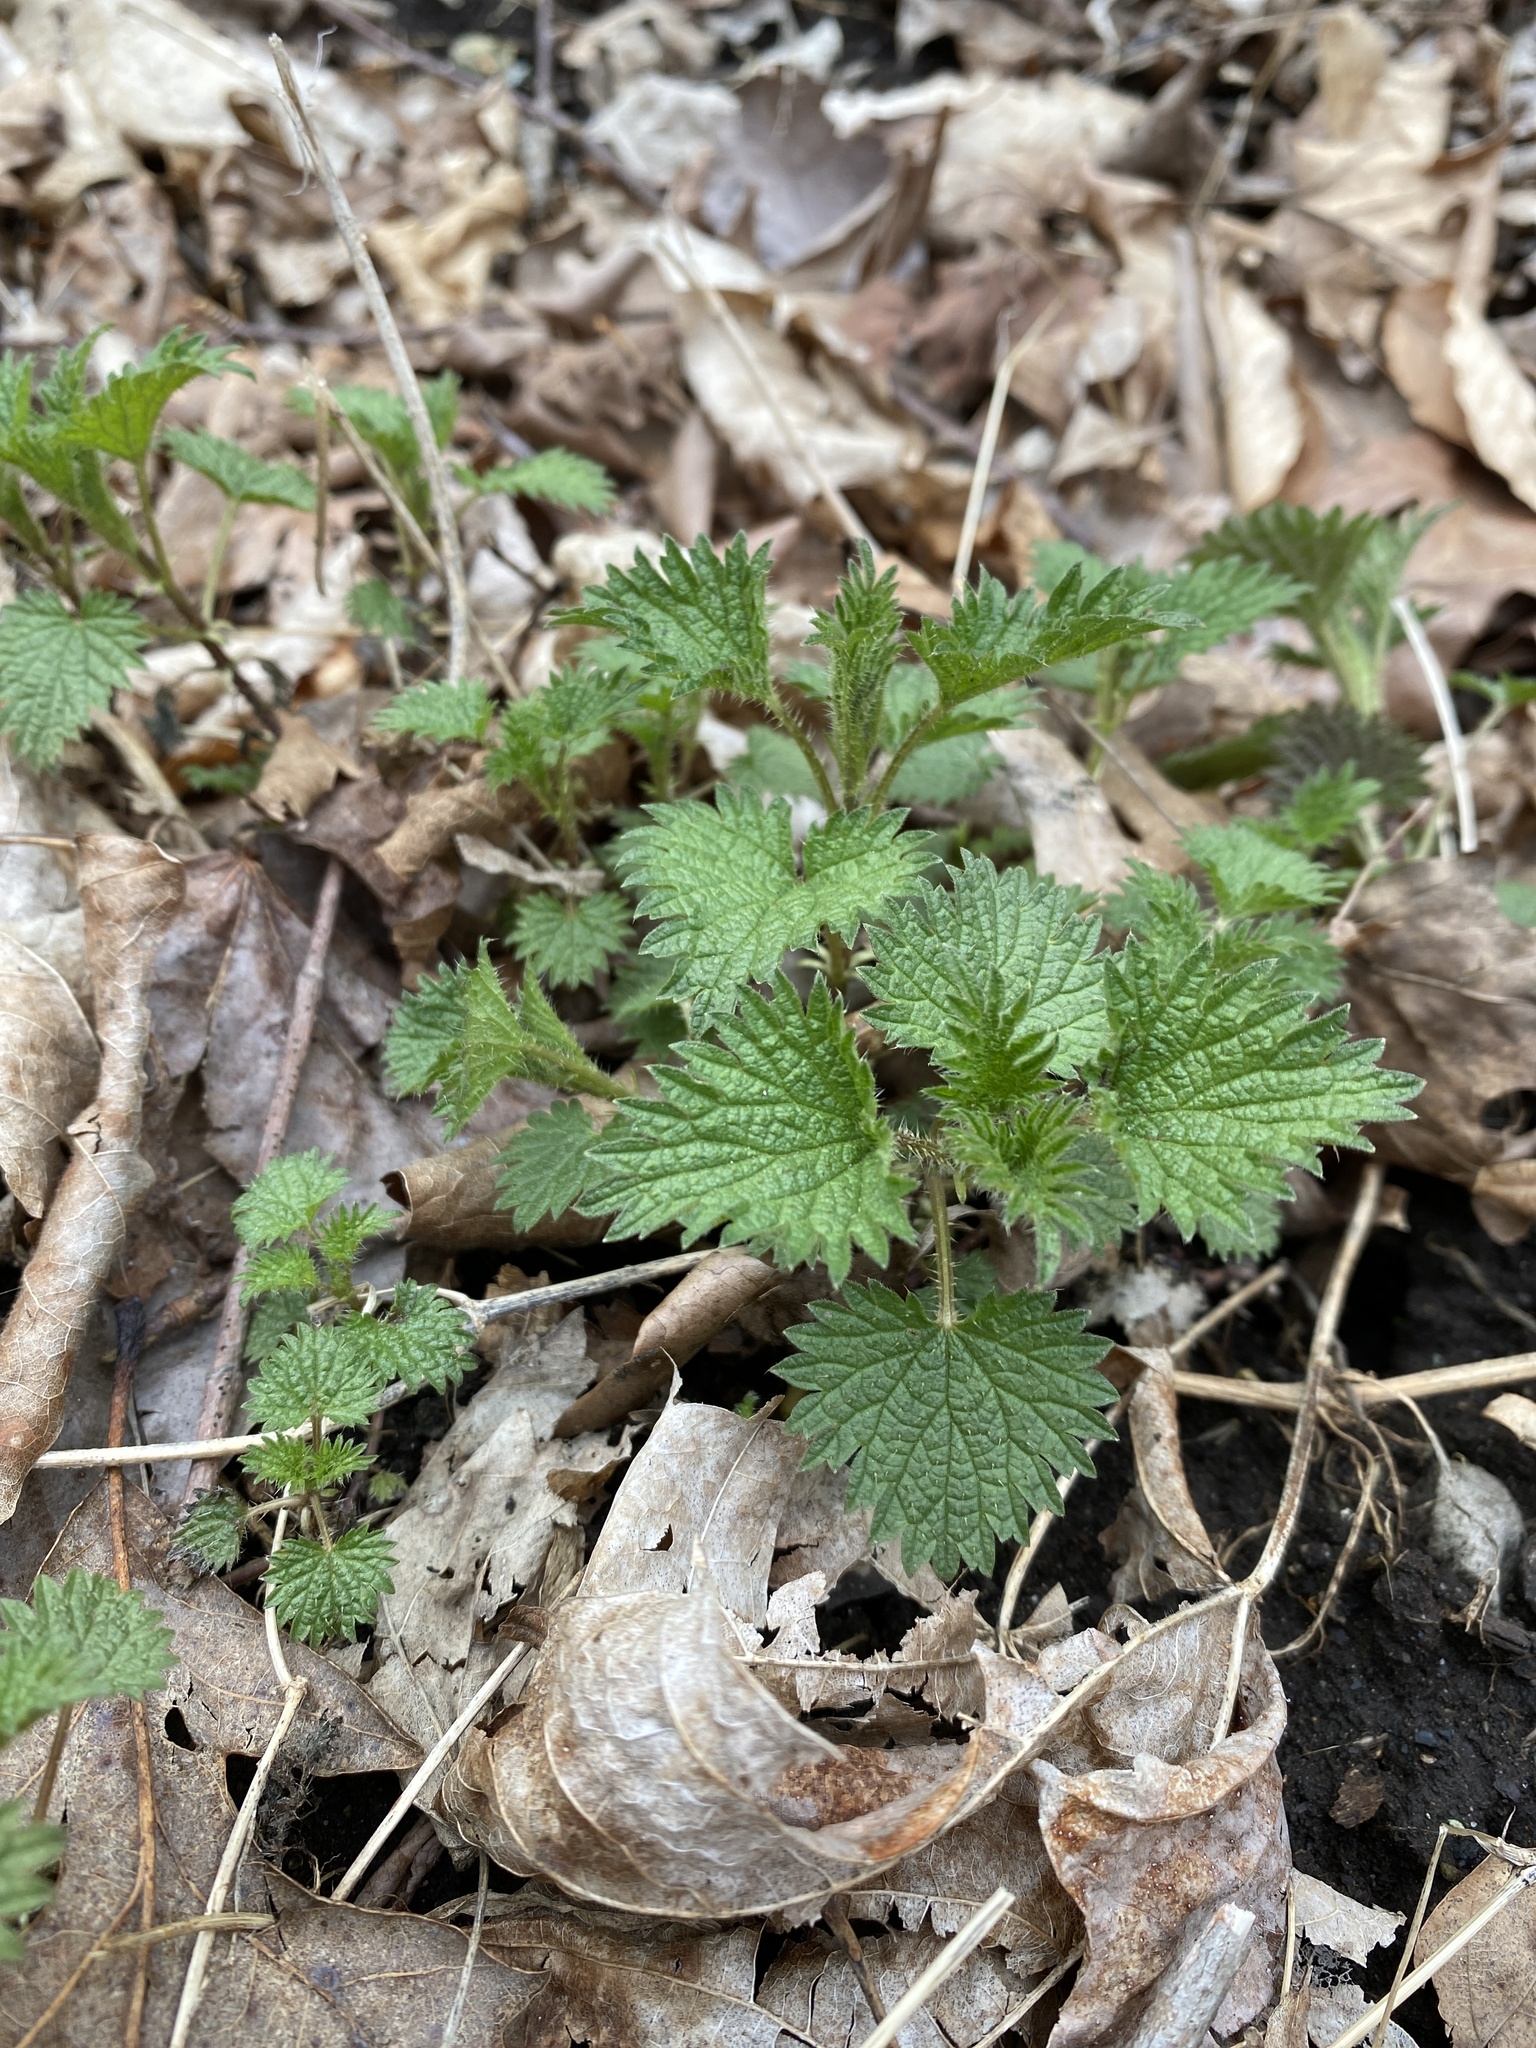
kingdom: Plantae
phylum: Tracheophyta
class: Magnoliopsida
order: Rosales
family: Urticaceae
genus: Urtica
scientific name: Urtica dioica
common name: Common nettle
